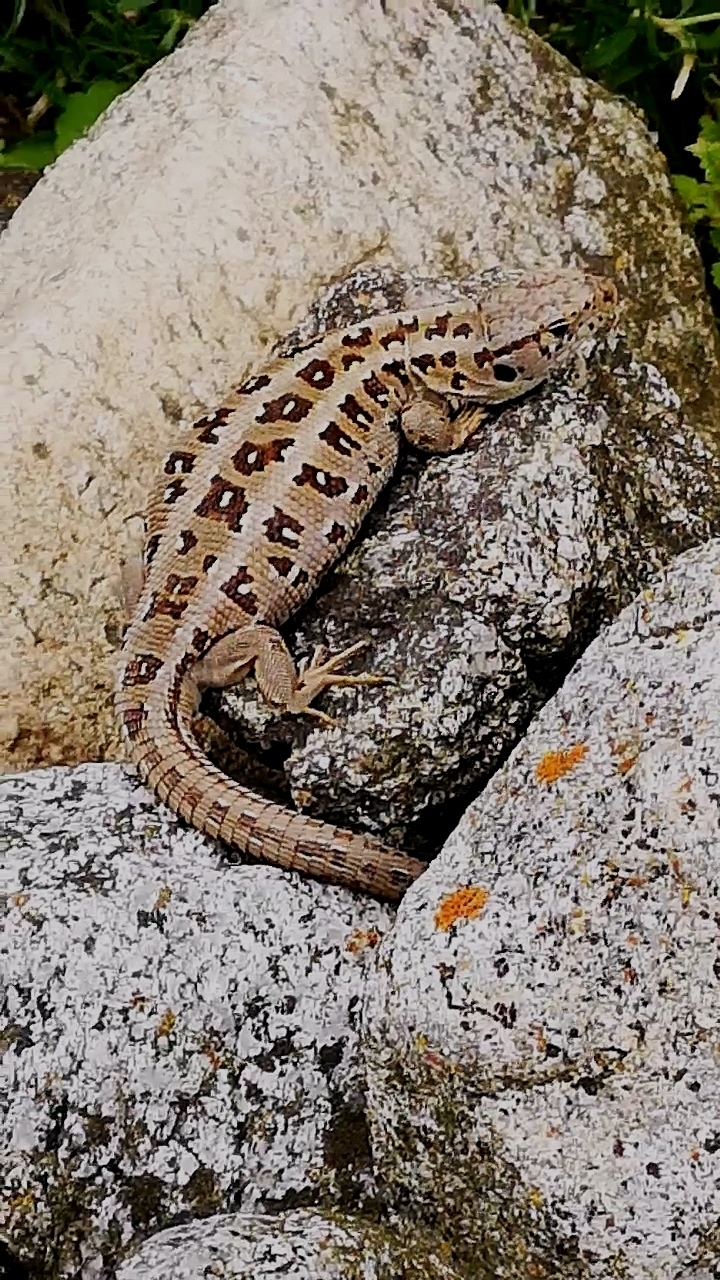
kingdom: Animalia
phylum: Chordata
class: Squamata
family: Lacertidae
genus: Lacerta
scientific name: Lacerta agilis
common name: Sand lizard
